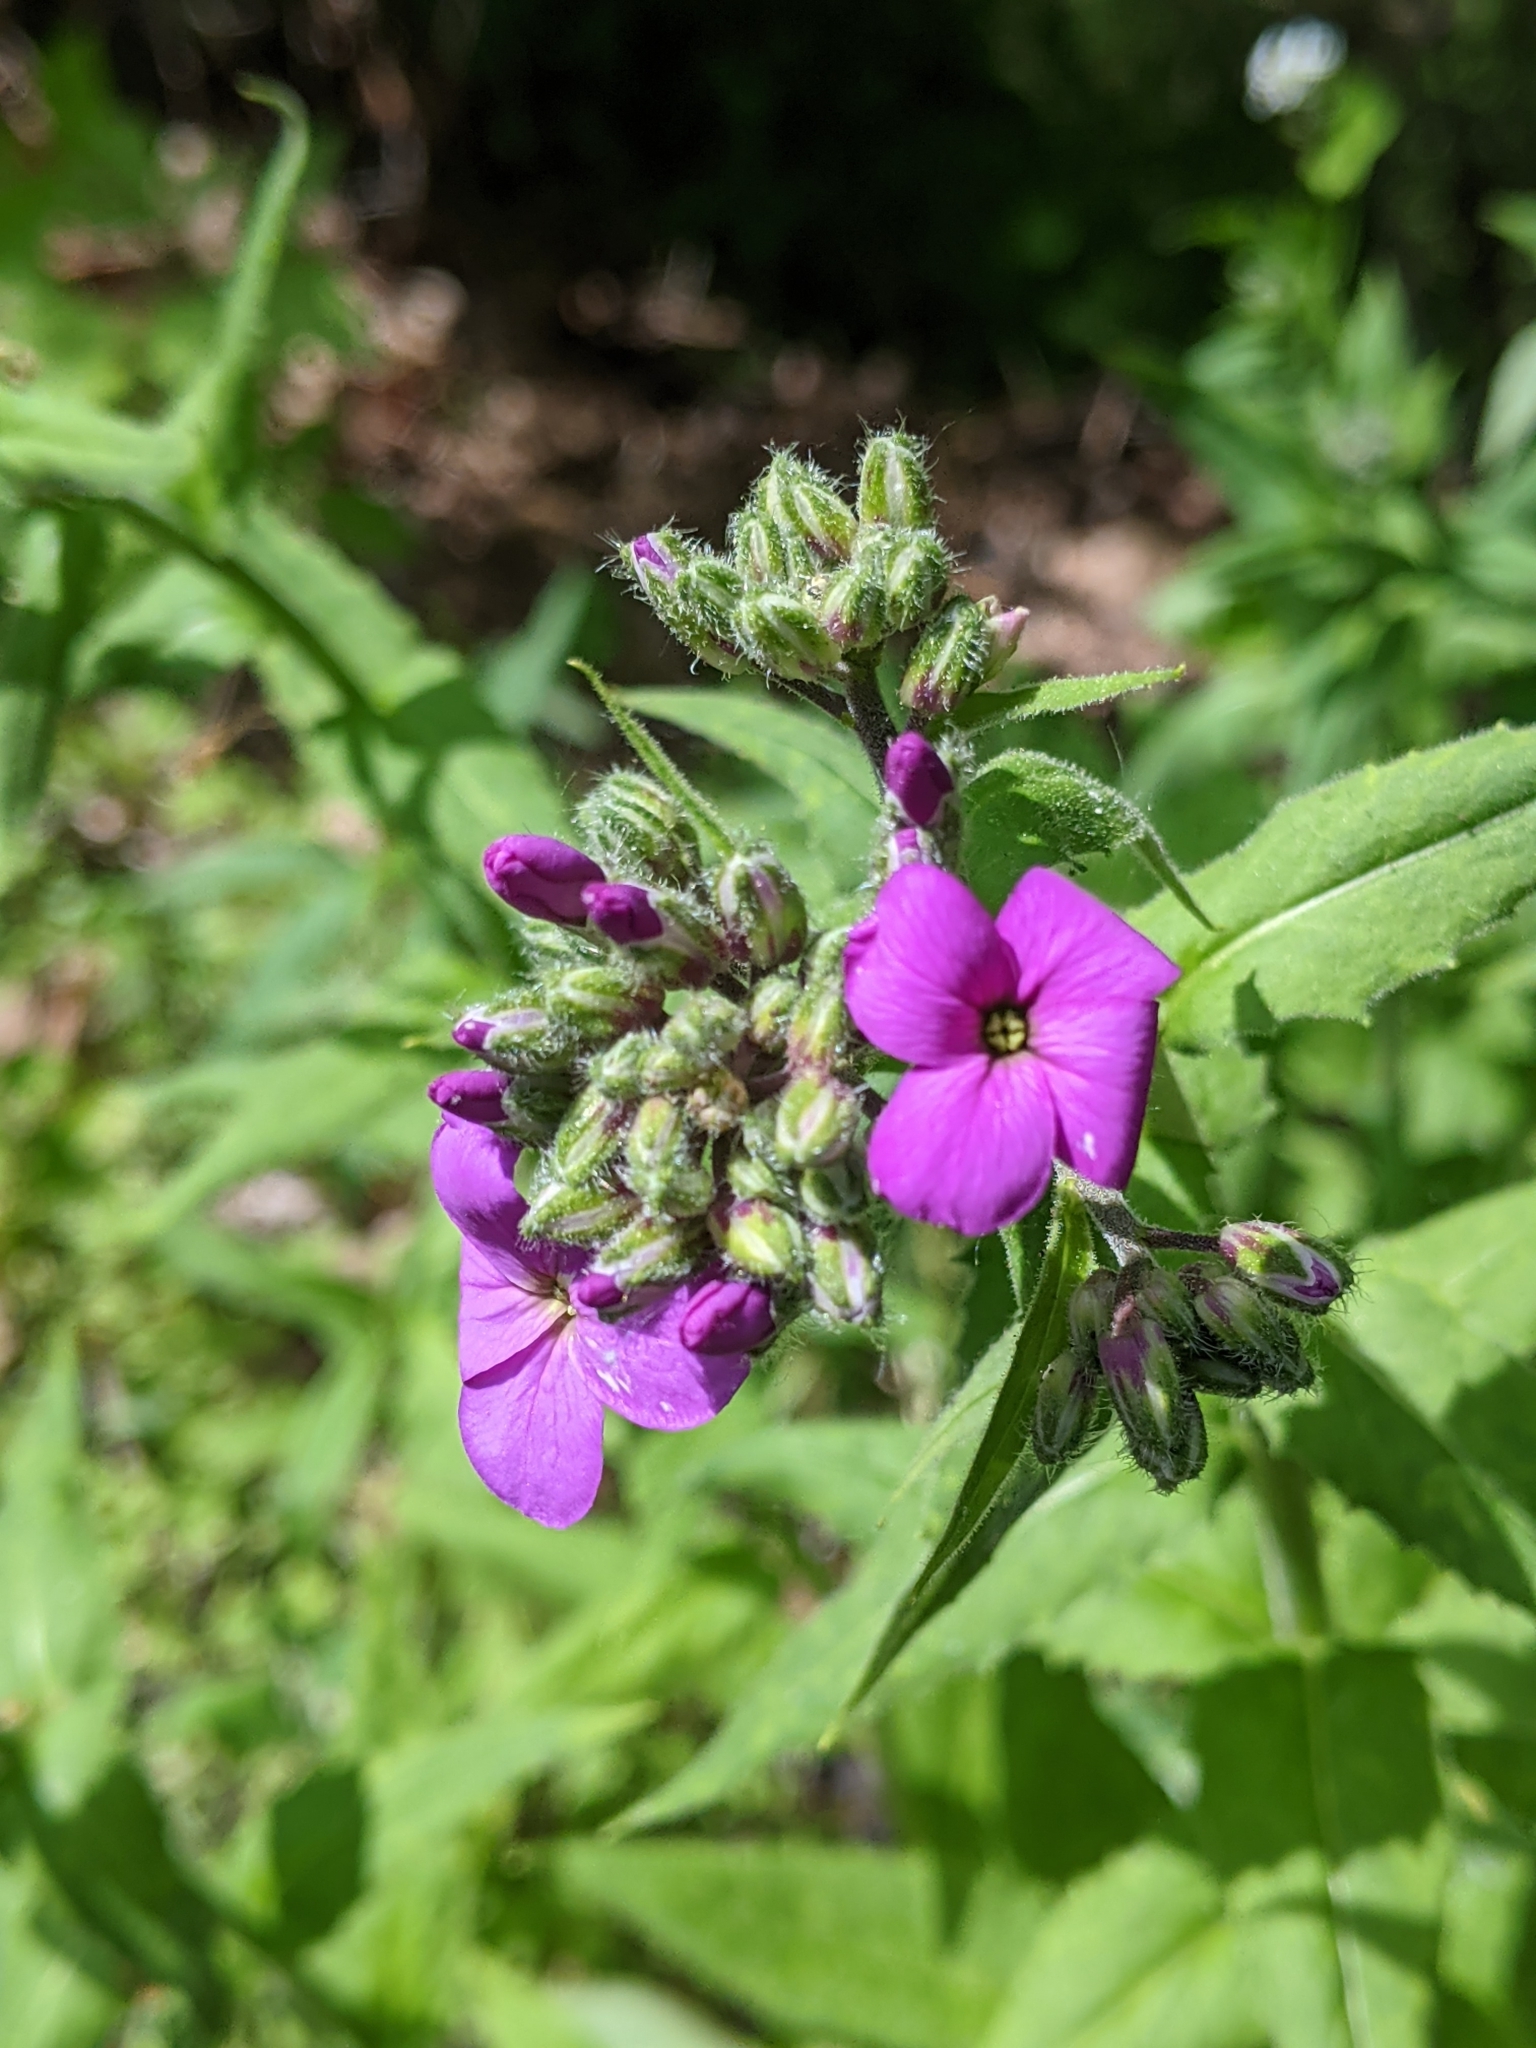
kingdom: Plantae
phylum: Tracheophyta
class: Magnoliopsida
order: Brassicales
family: Brassicaceae
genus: Hesperis
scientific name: Hesperis matronalis
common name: Dame's-violet
